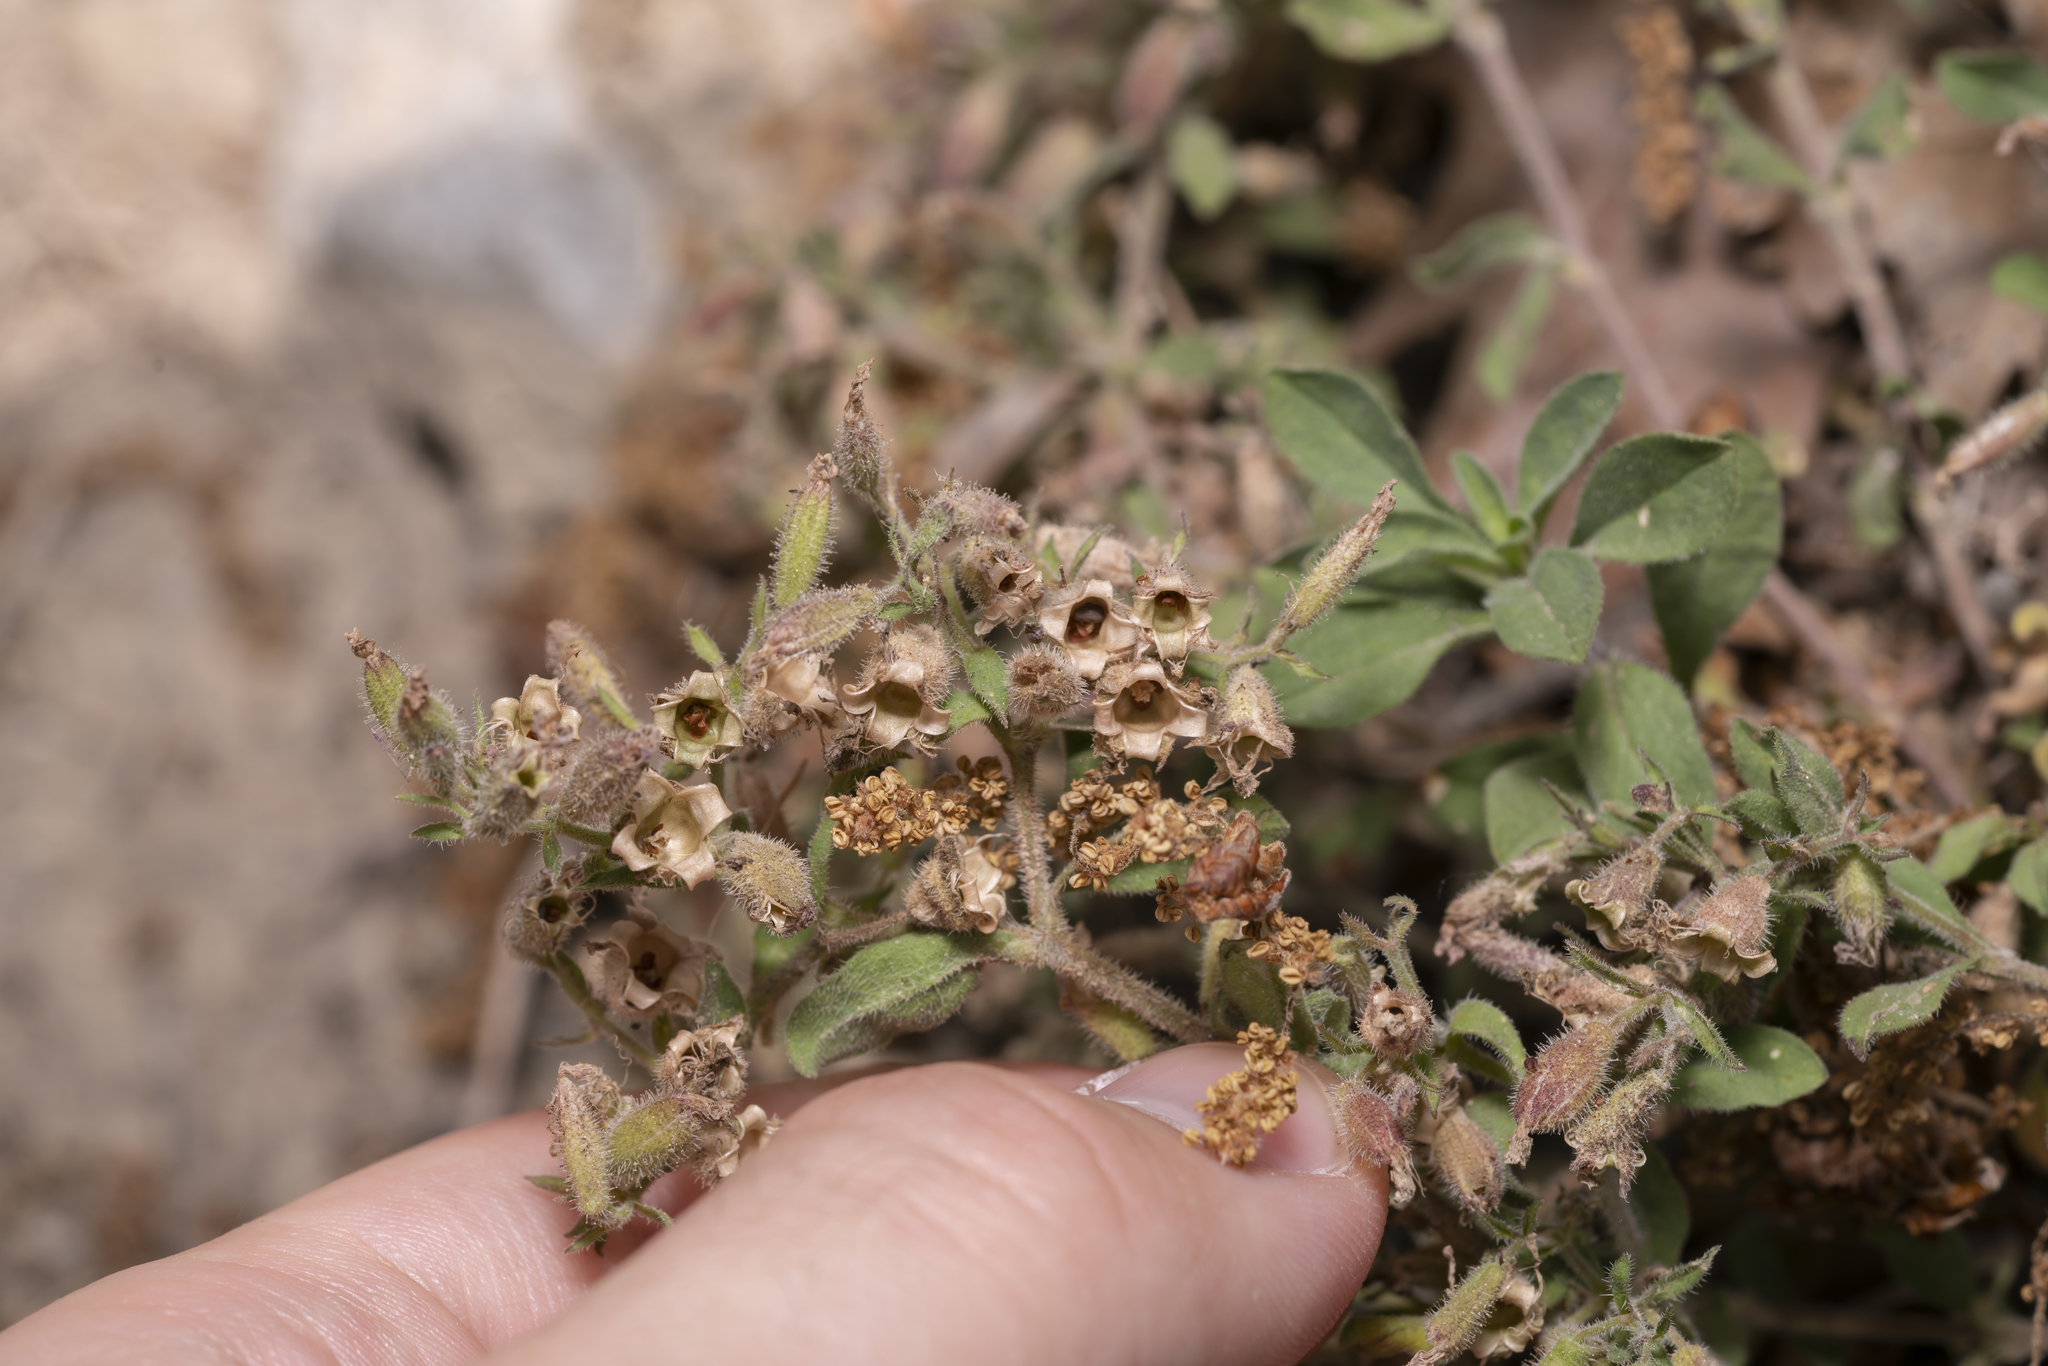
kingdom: Plantae
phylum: Tracheophyta
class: Magnoliopsida
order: Caryophyllales
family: Caryophyllaceae
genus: Saponaria
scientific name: Saponaria ocymoides
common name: Rock soapwort
